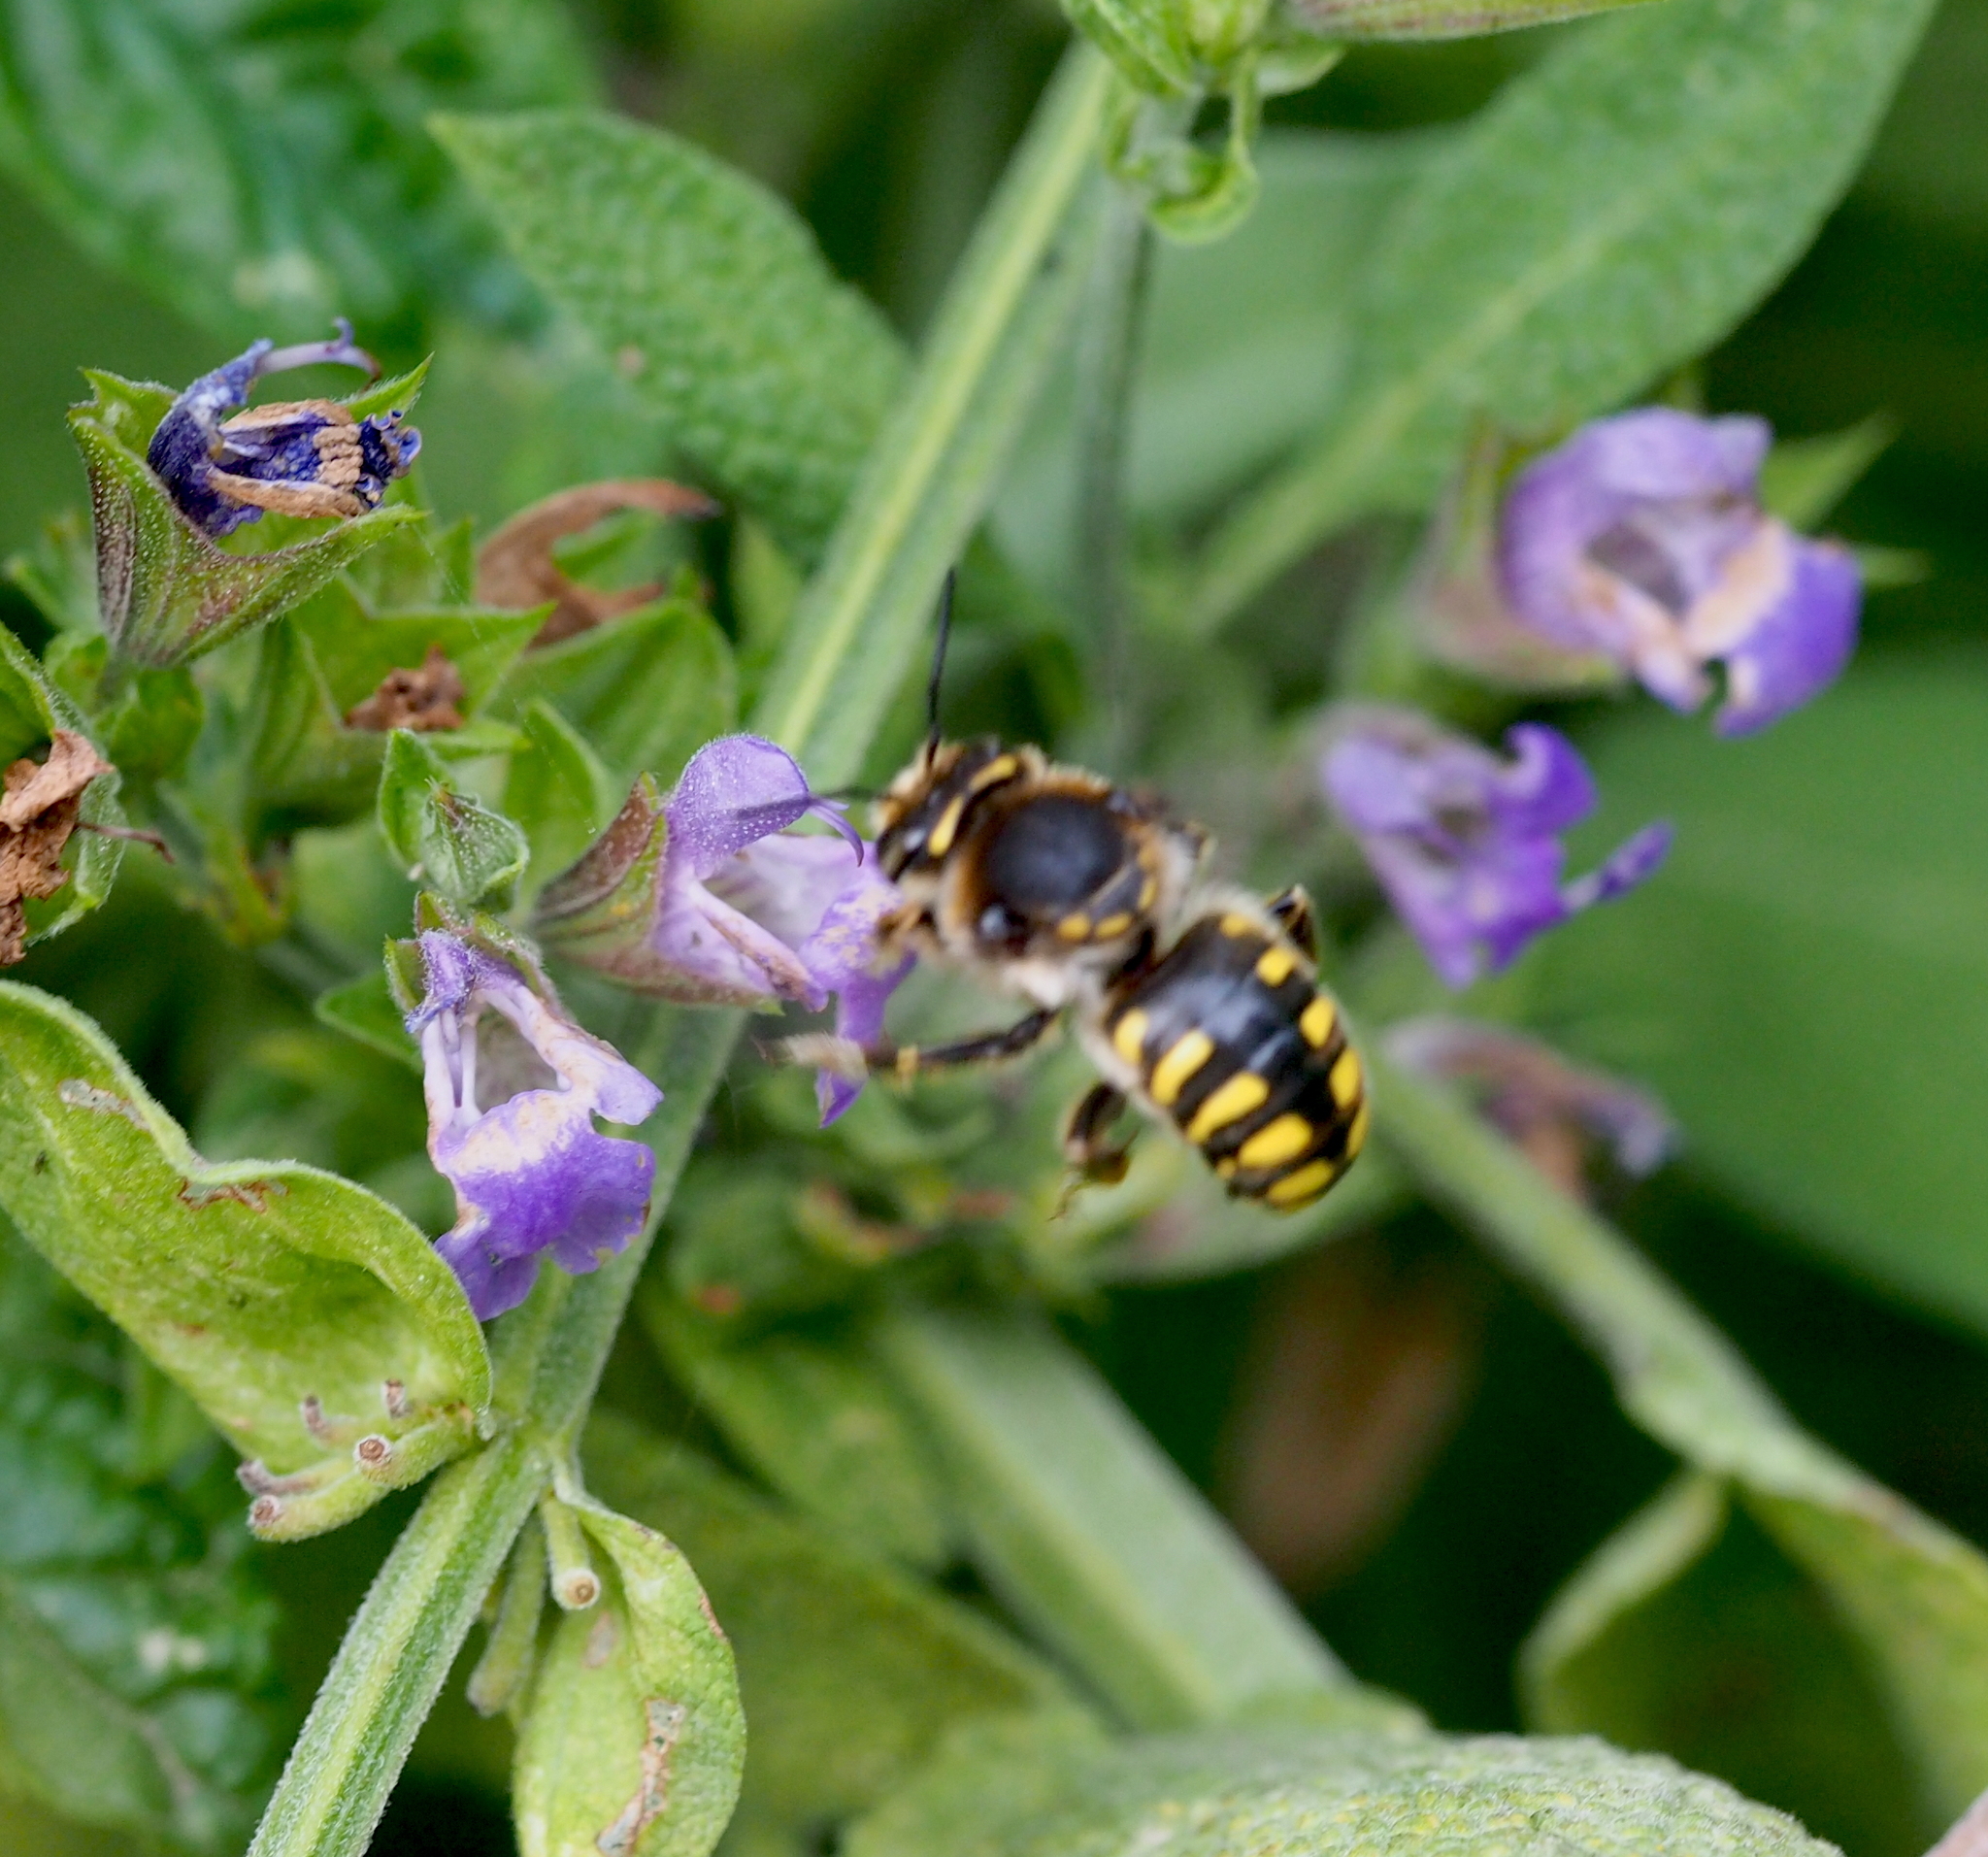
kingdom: Animalia
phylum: Arthropoda
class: Insecta
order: Hymenoptera
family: Megachilidae
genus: Anthidium
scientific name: Anthidium septemspinosum
